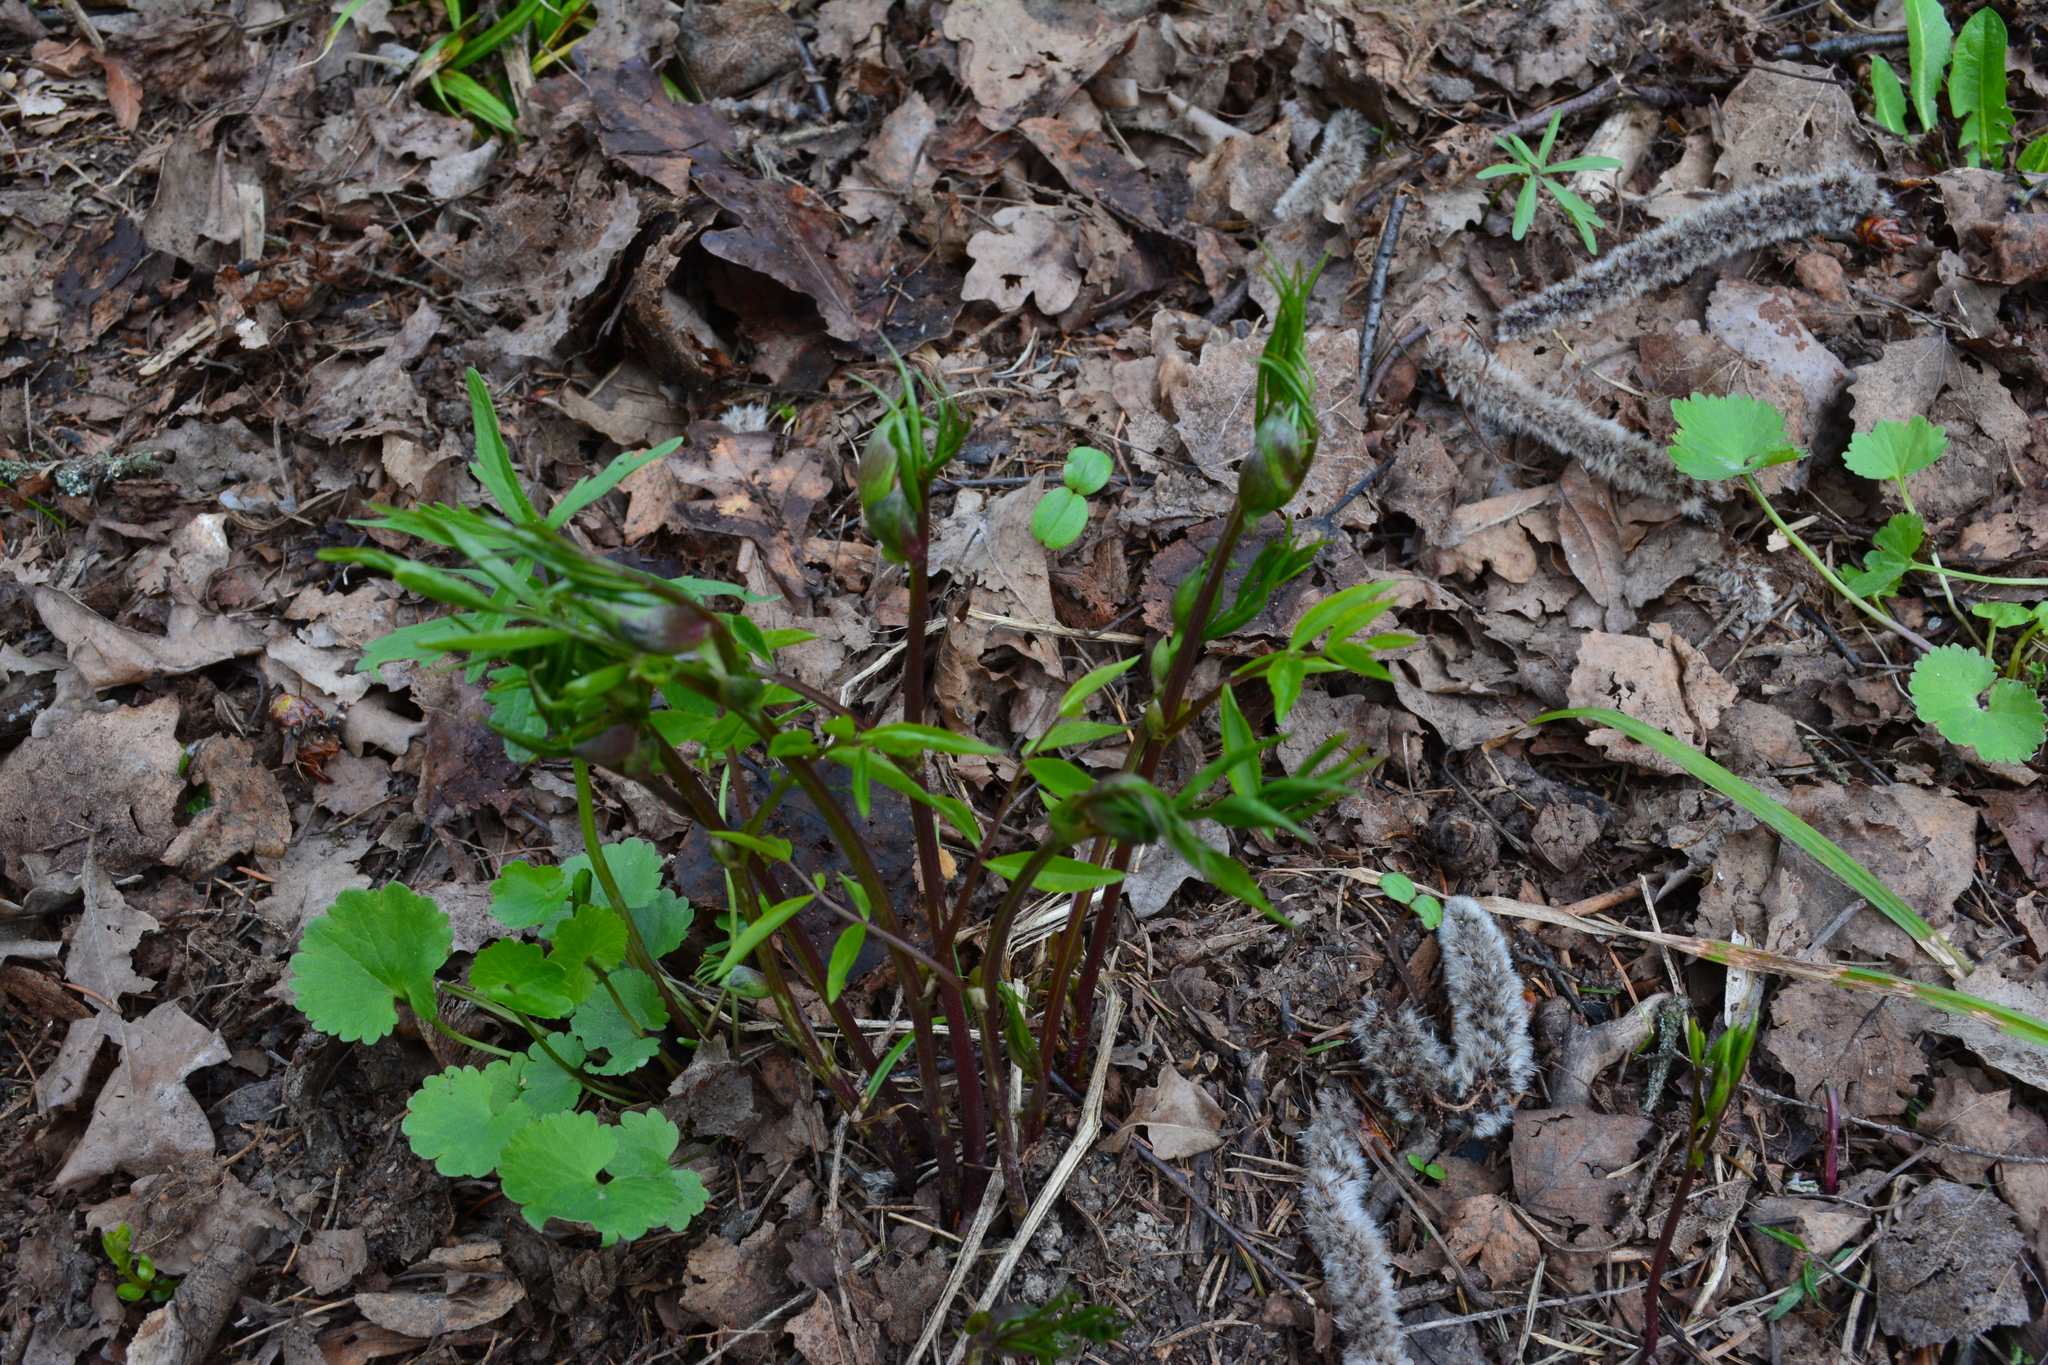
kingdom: Plantae
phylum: Tracheophyta
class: Magnoliopsida
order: Fabales
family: Fabaceae
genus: Lathyrus
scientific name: Lathyrus vernus
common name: Spring pea
